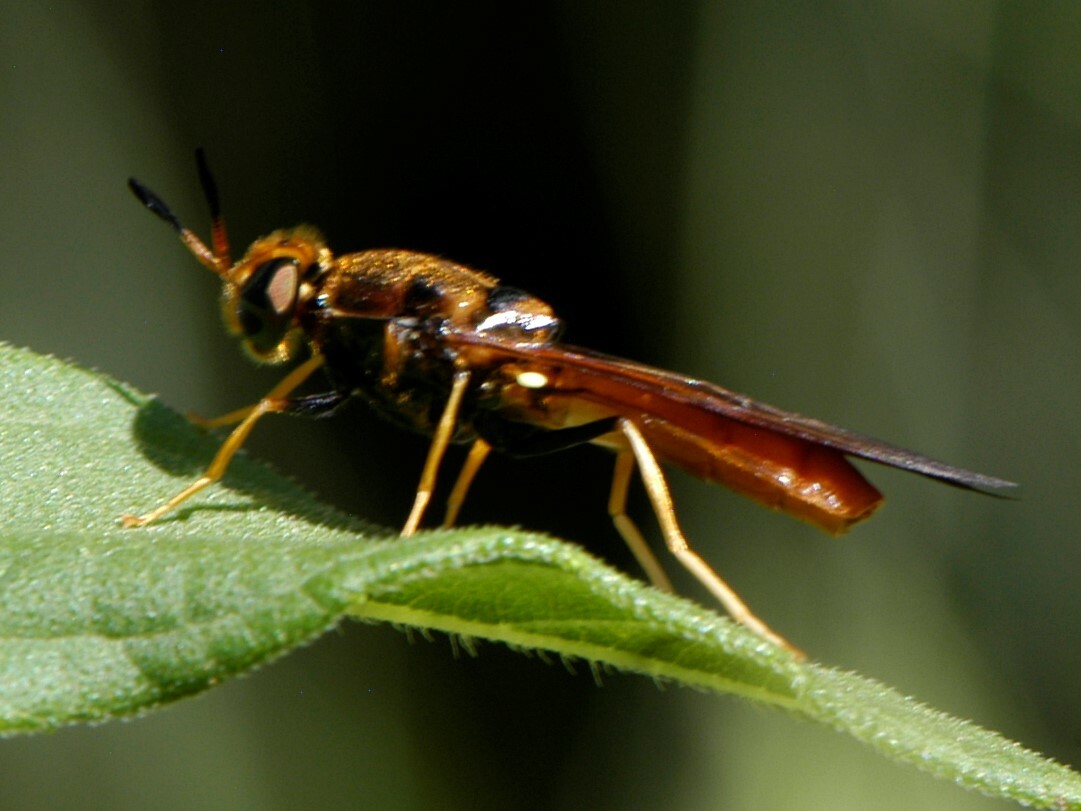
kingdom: Animalia
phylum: Arthropoda
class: Insecta
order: Diptera
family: Stratiomyidae
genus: Hermetia
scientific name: Hermetia concinna
